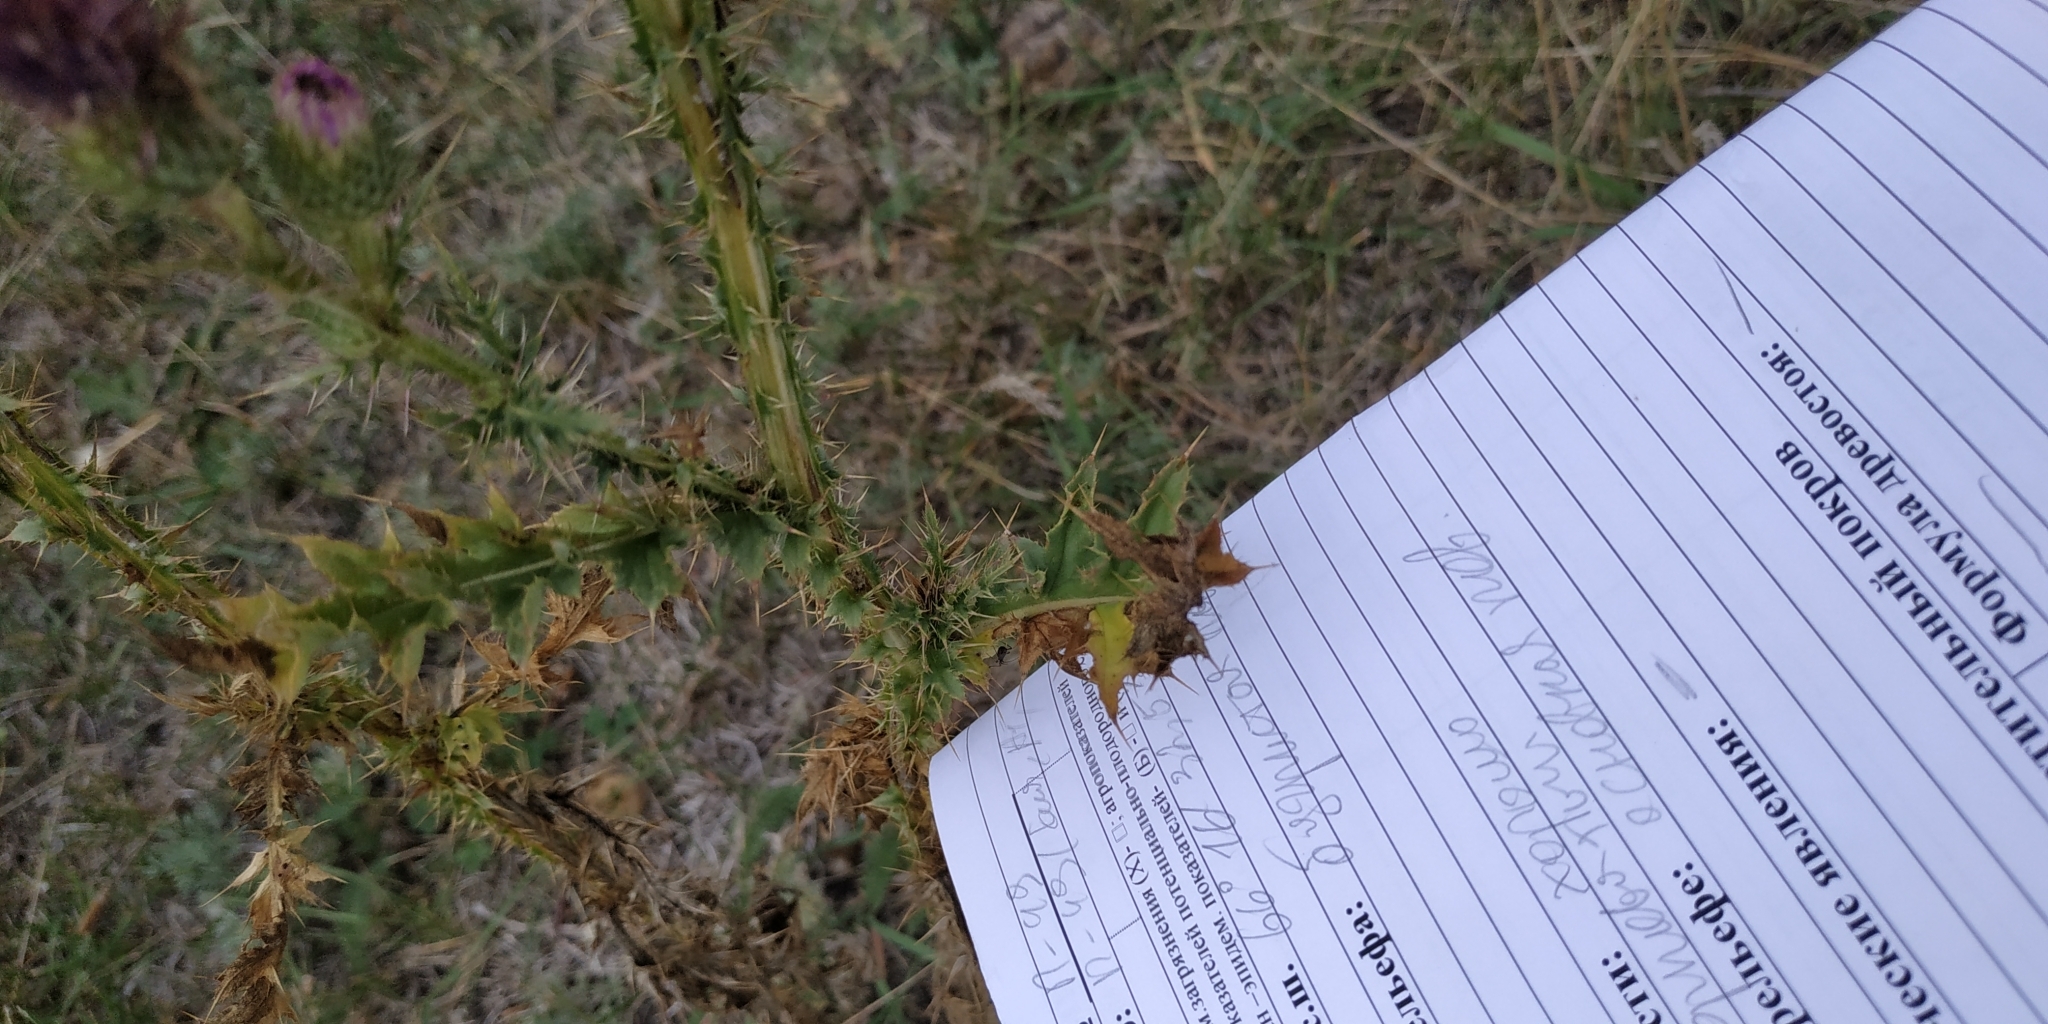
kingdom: Plantae
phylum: Tracheophyta
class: Magnoliopsida
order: Asterales
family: Asteraceae
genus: Carduus
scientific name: Carduus acanthoides
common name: Plumeless thistle
